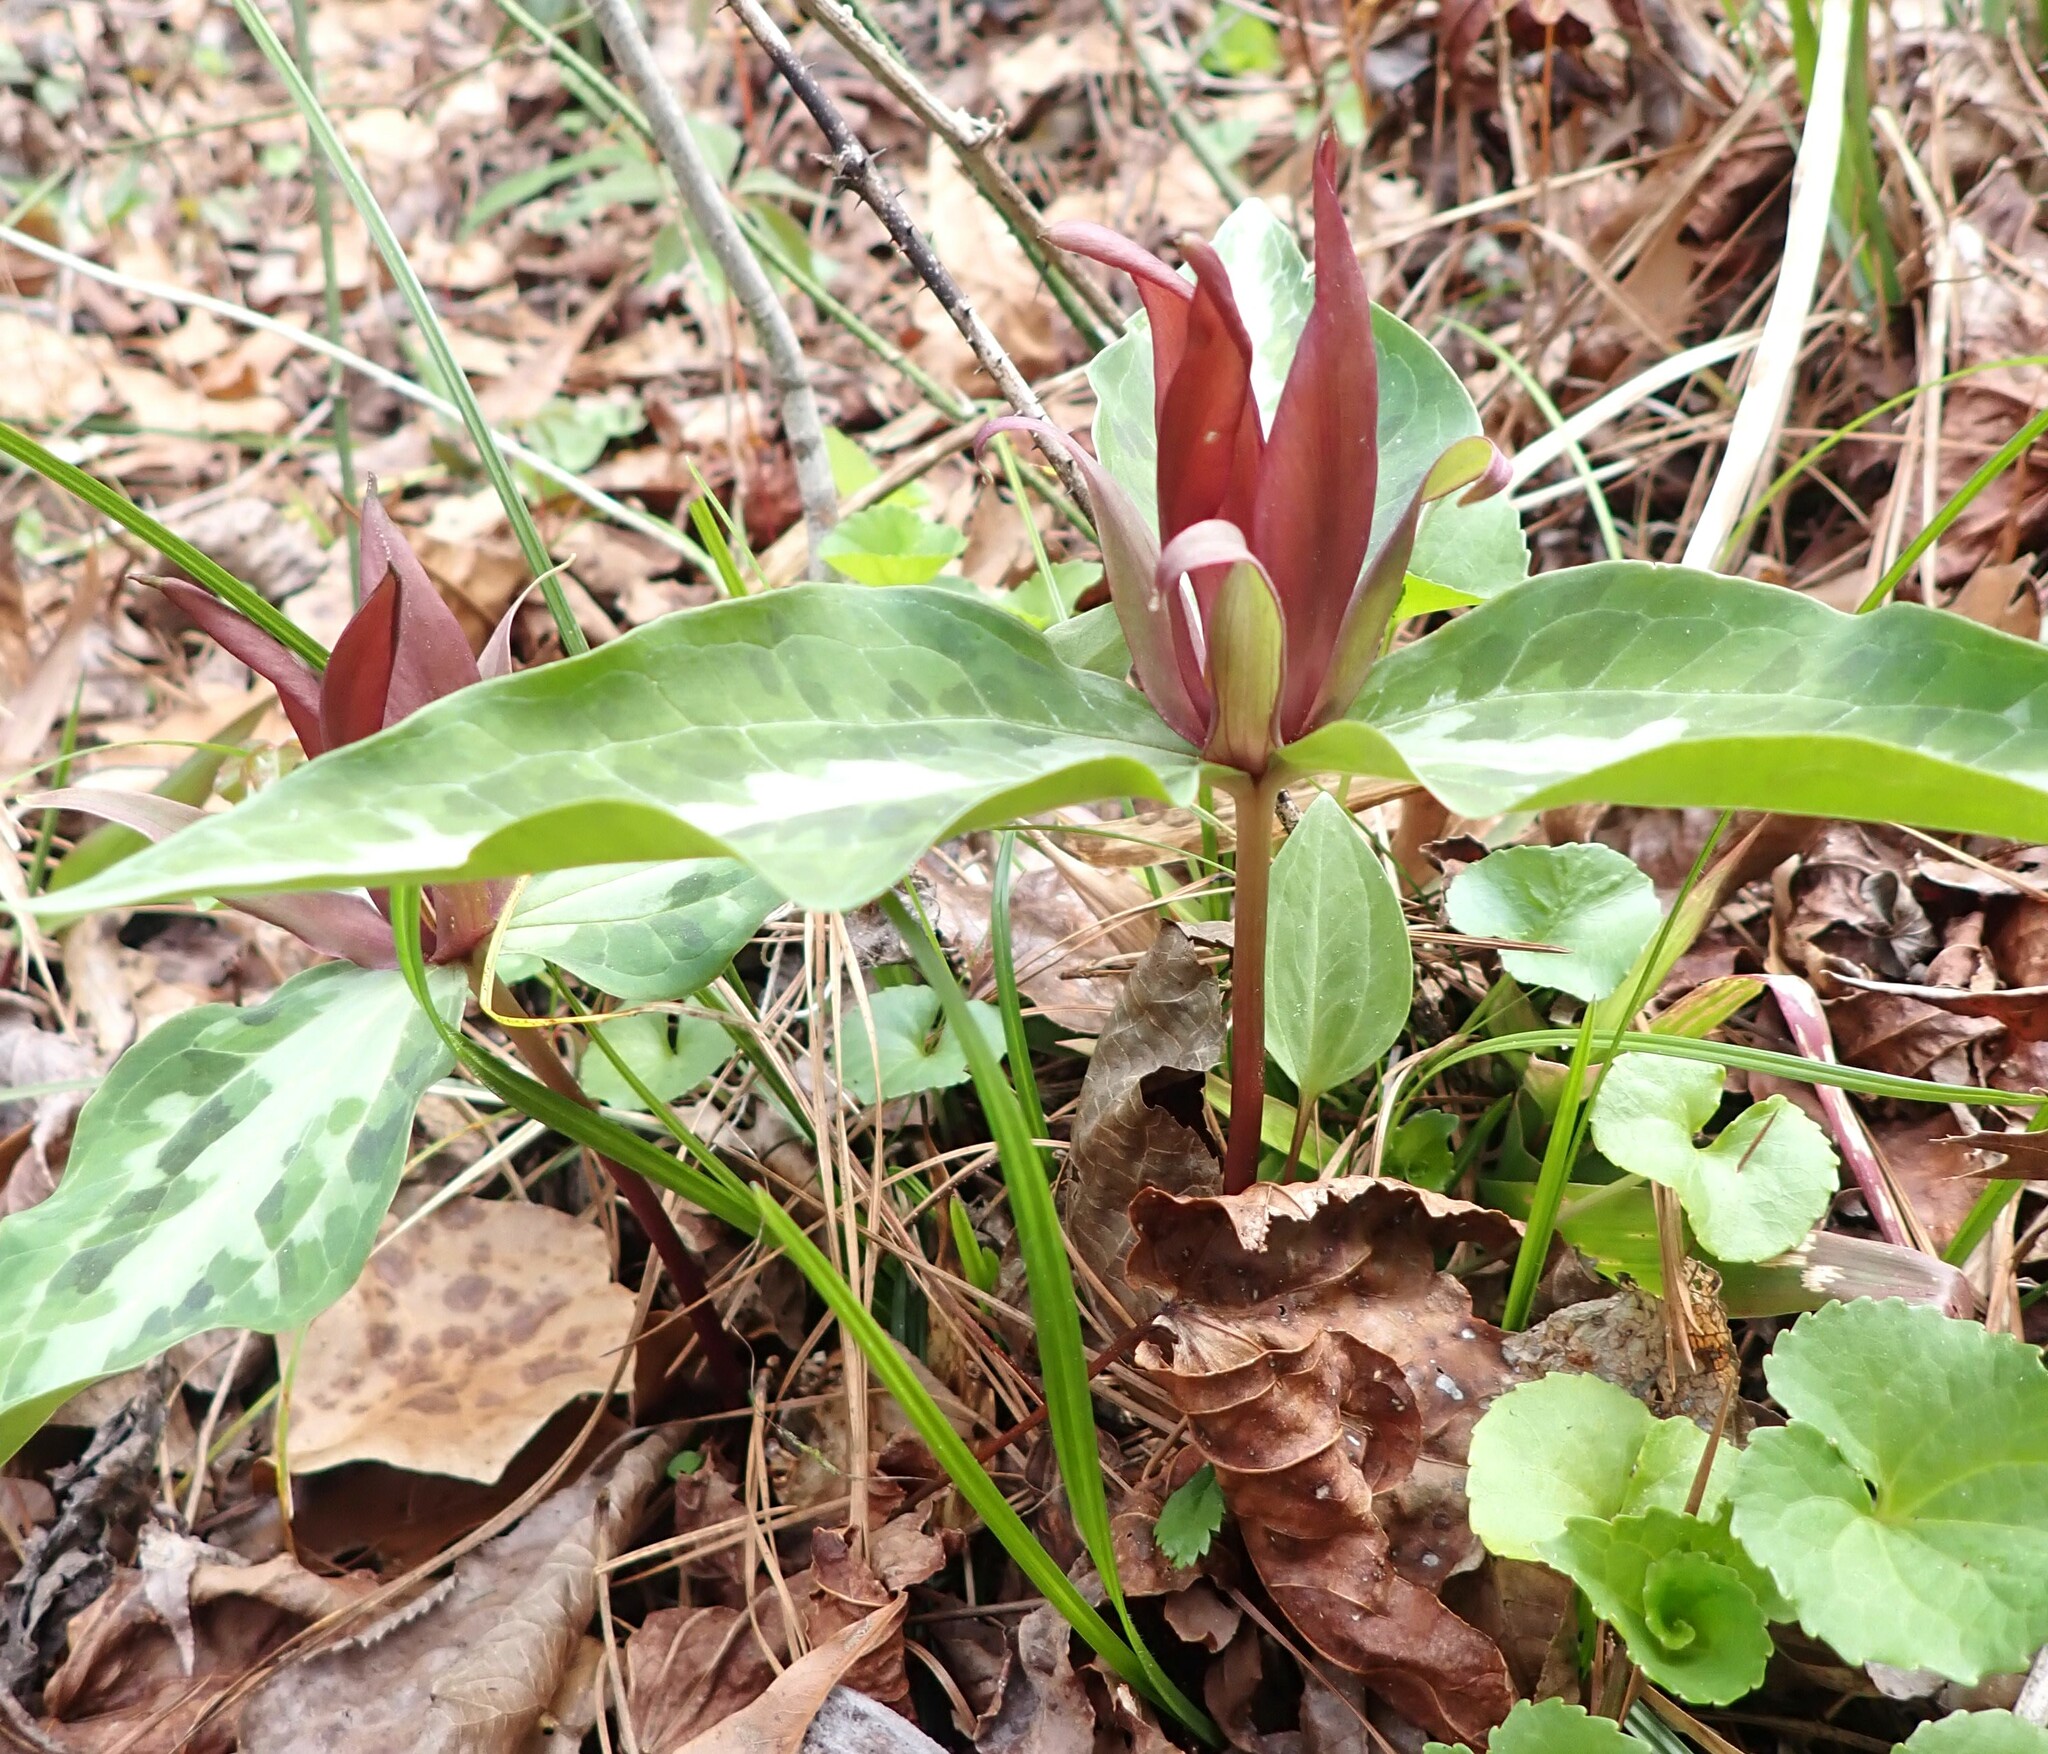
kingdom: Plantae
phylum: Tracheophyta
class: Liliopsida
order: Liliales
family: Melanthiaceae
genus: Trillium
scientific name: Trillium underwoodii
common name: Longbract wakerobin
